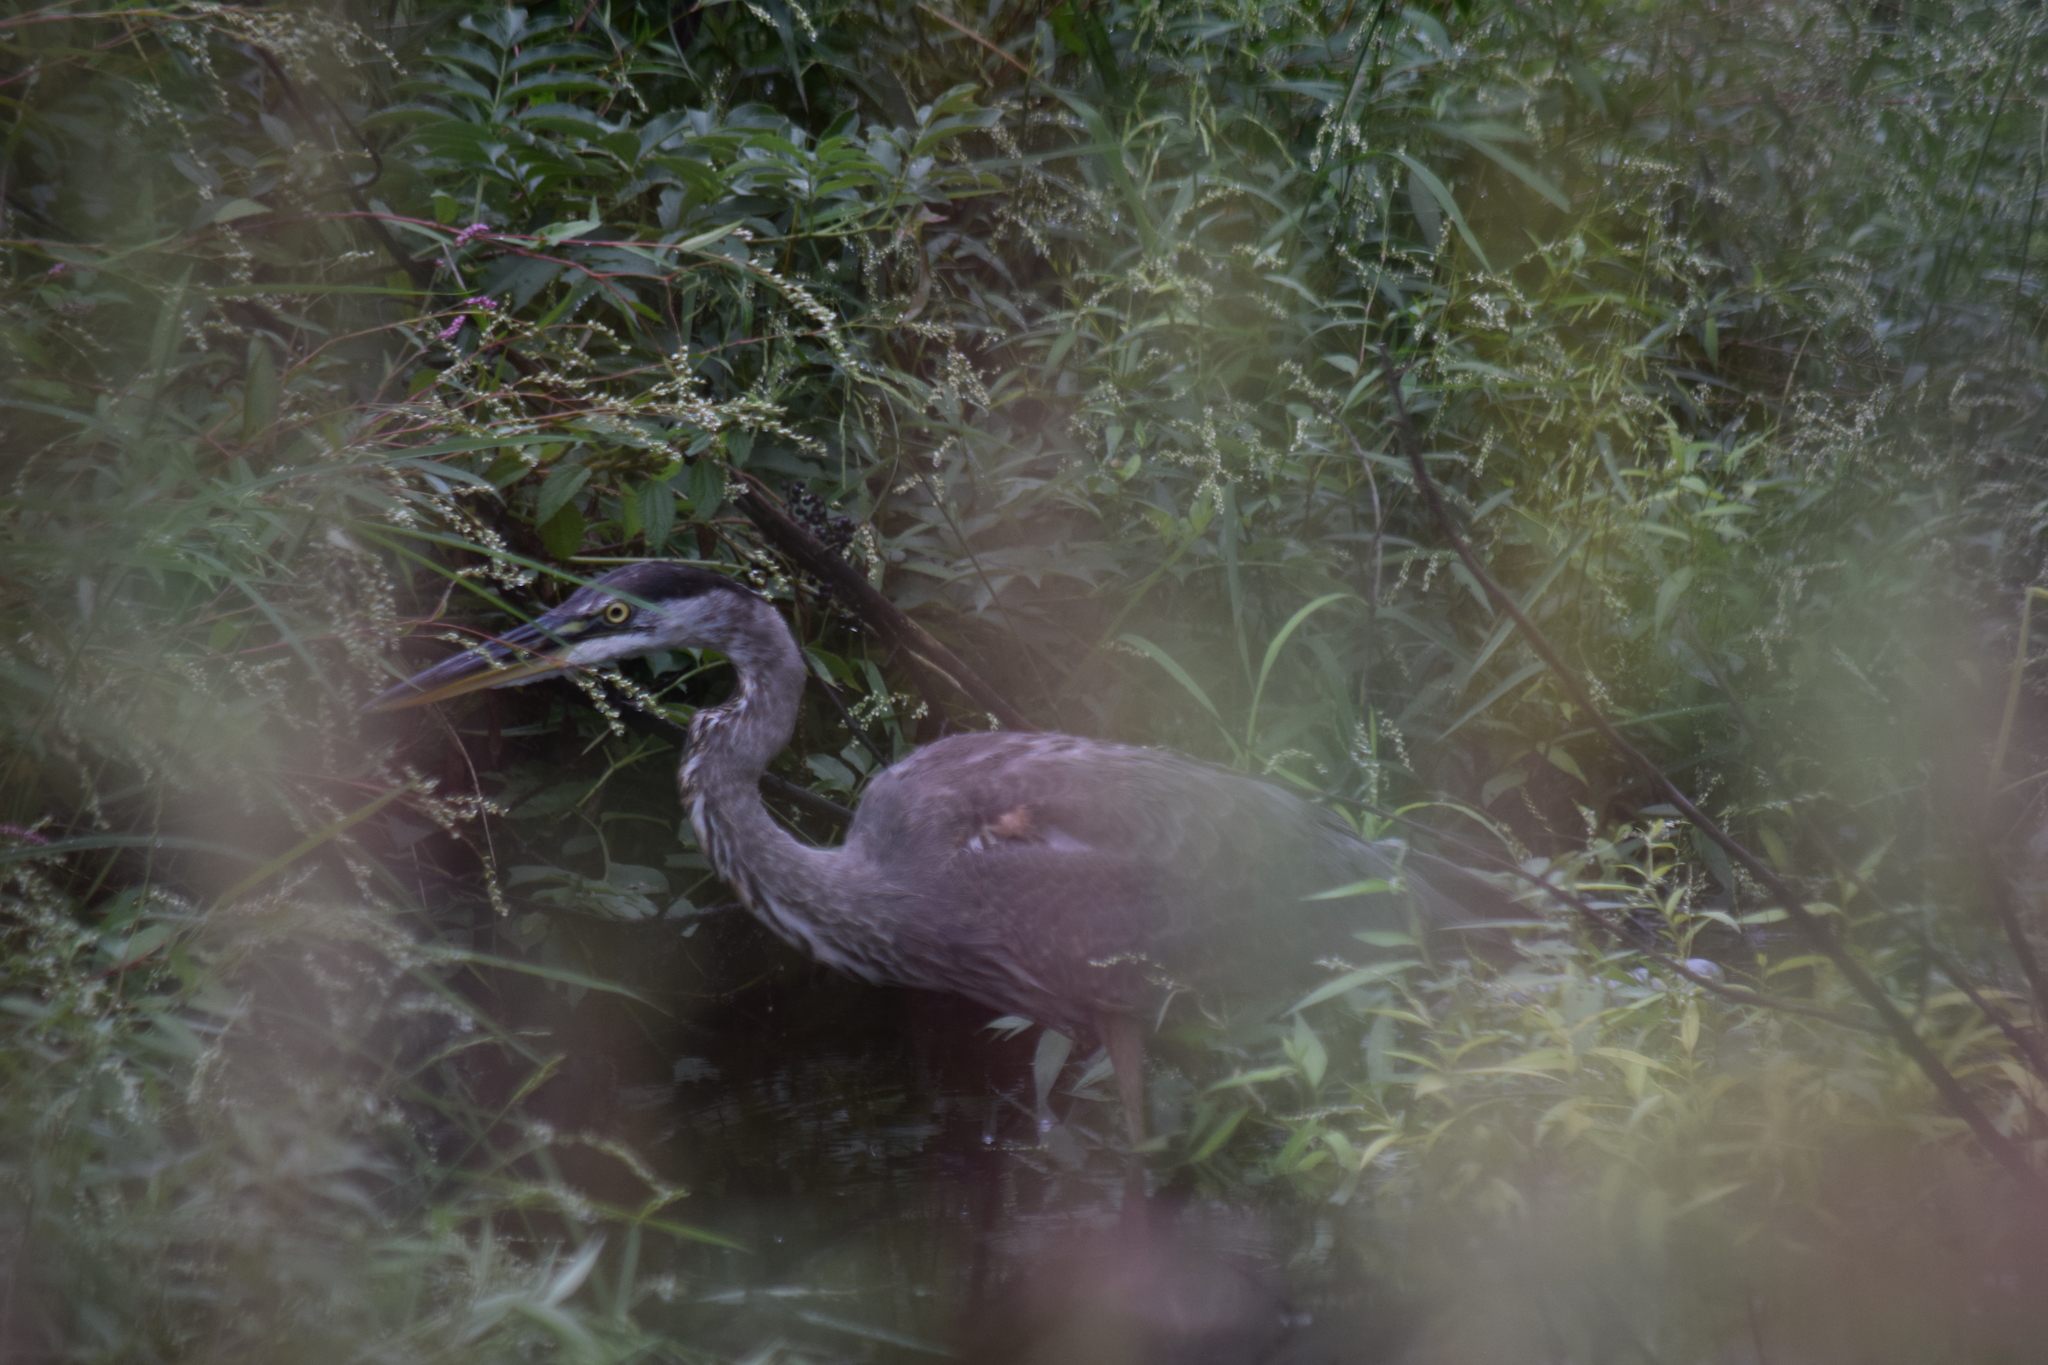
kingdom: Animalia
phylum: Chordata
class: Aves
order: Pelecaniformes
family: Ardeidae
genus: Ardea
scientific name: Ardea herodias
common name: Great blue heron
